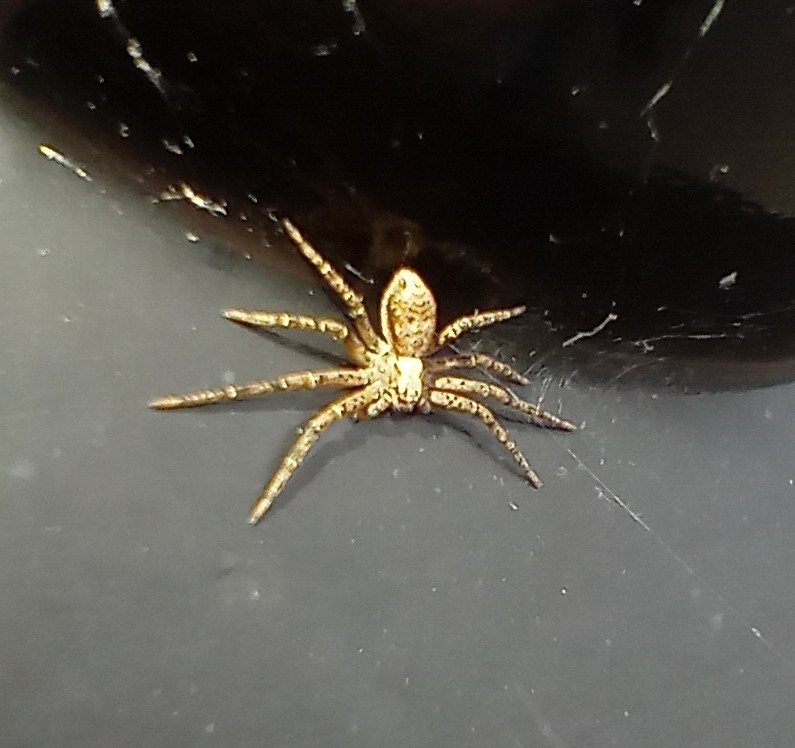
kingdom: Animalia
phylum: Arthropoda
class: Arachnida
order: Araneae
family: Philodromidae
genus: Philodromus
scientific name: Philodromus dispar
